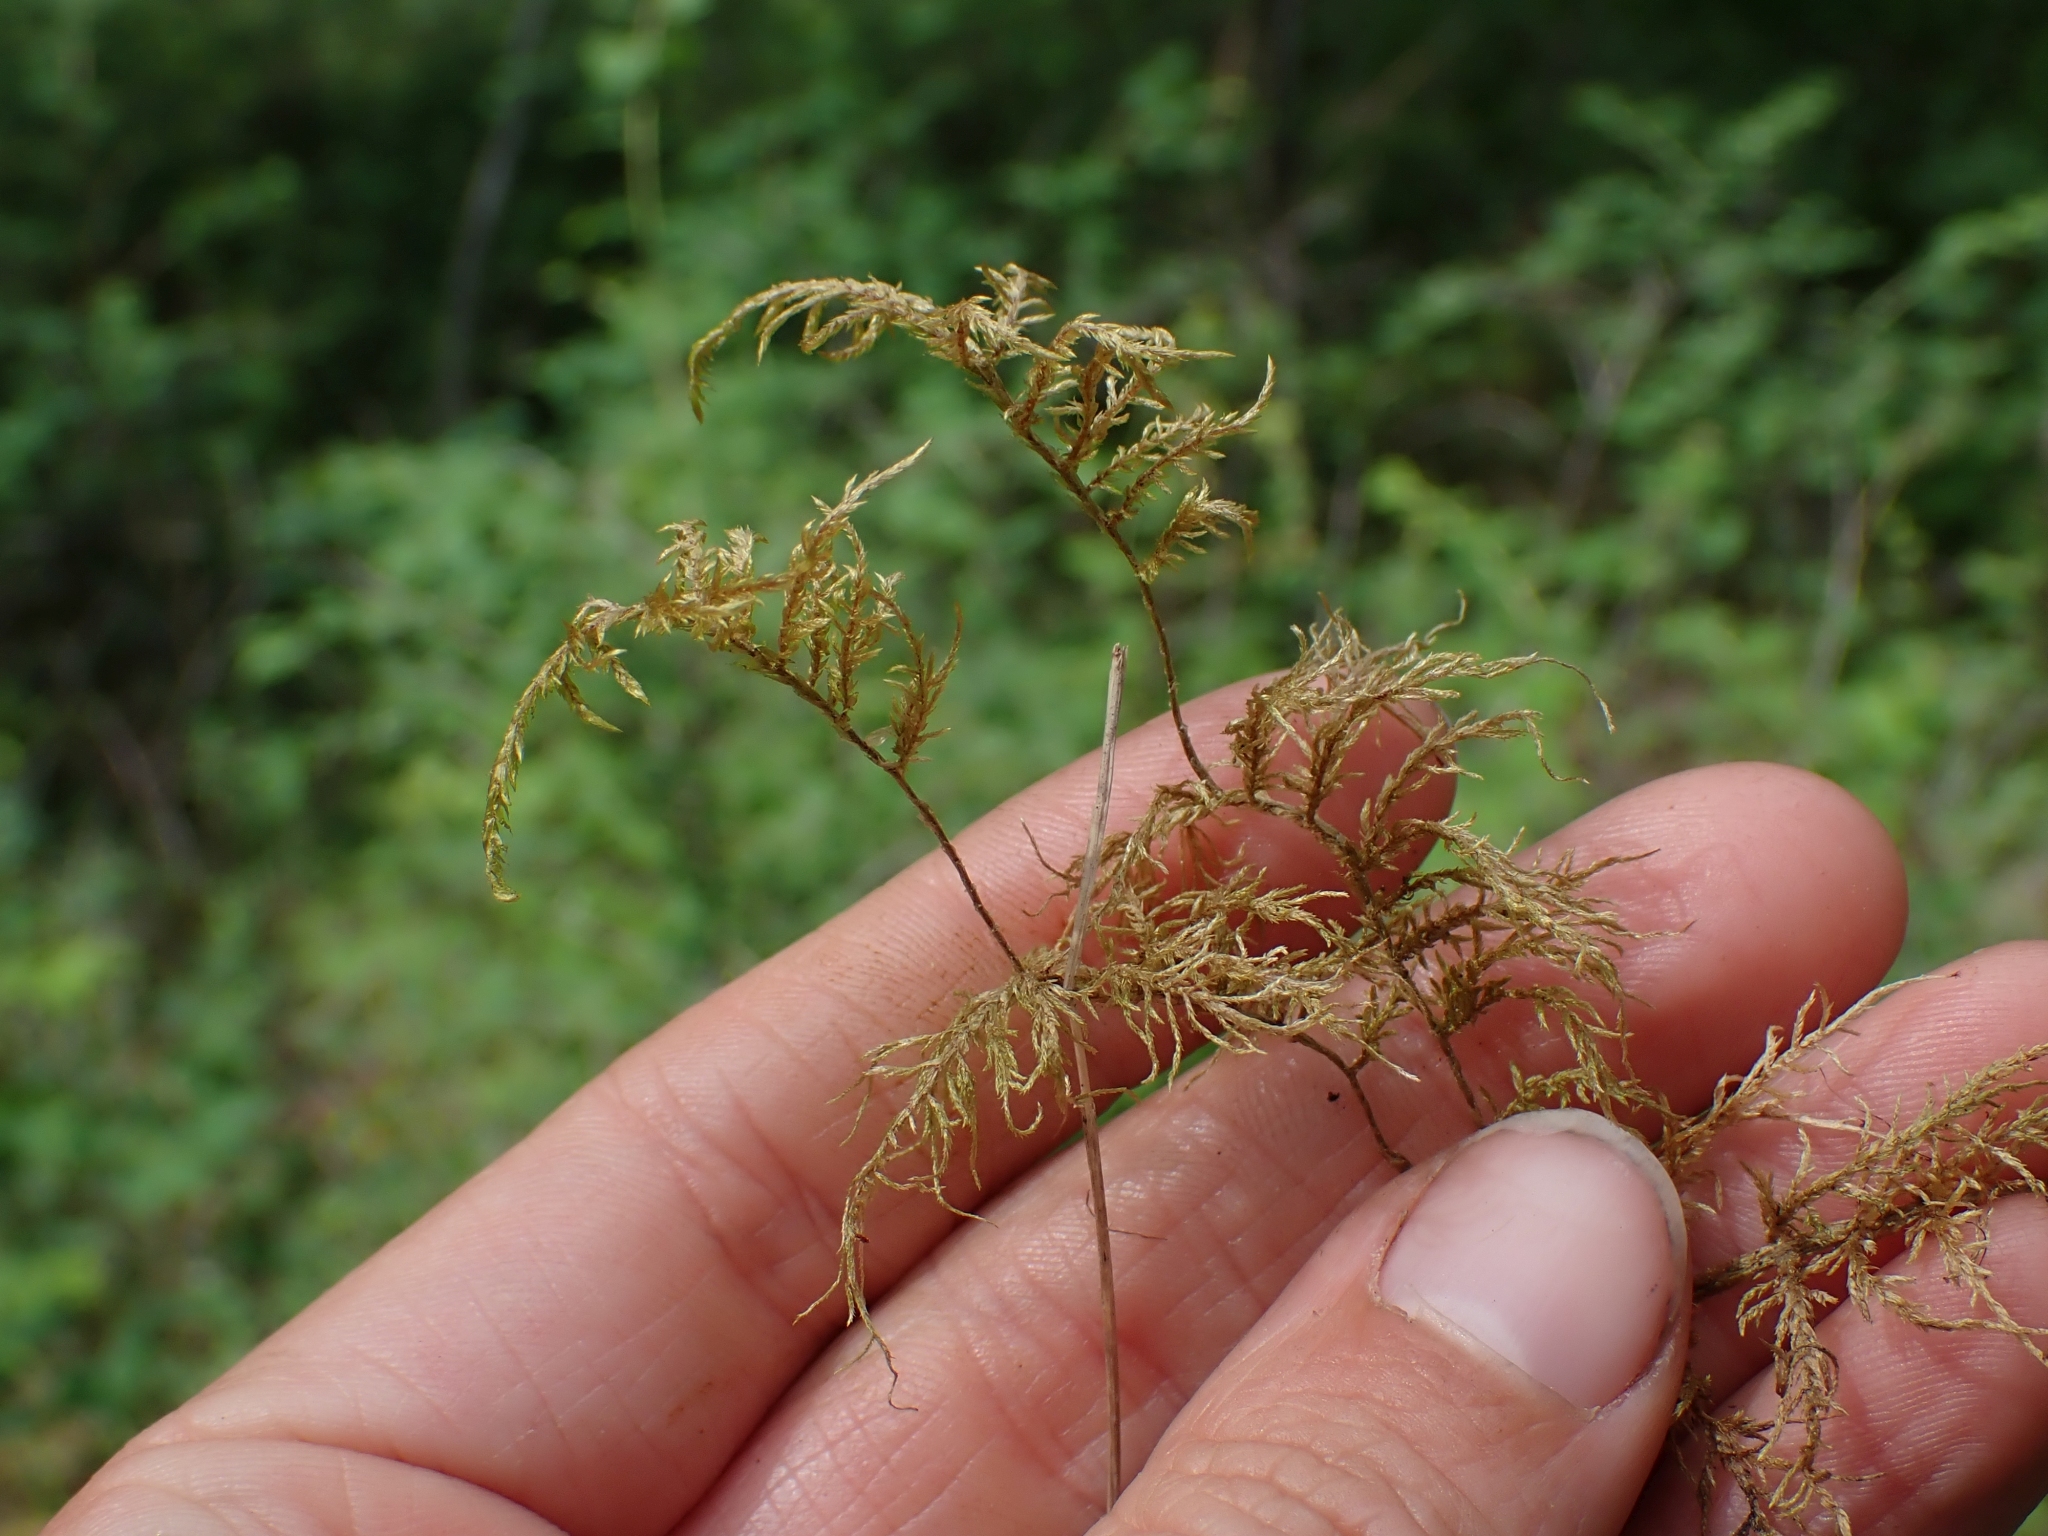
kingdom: Plantae
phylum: Bryophyta
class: Bryopsida
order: Hypnales
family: Hylocomiaceae
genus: Hylocomium
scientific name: Hylocomium splendens
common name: Stairstep moss
